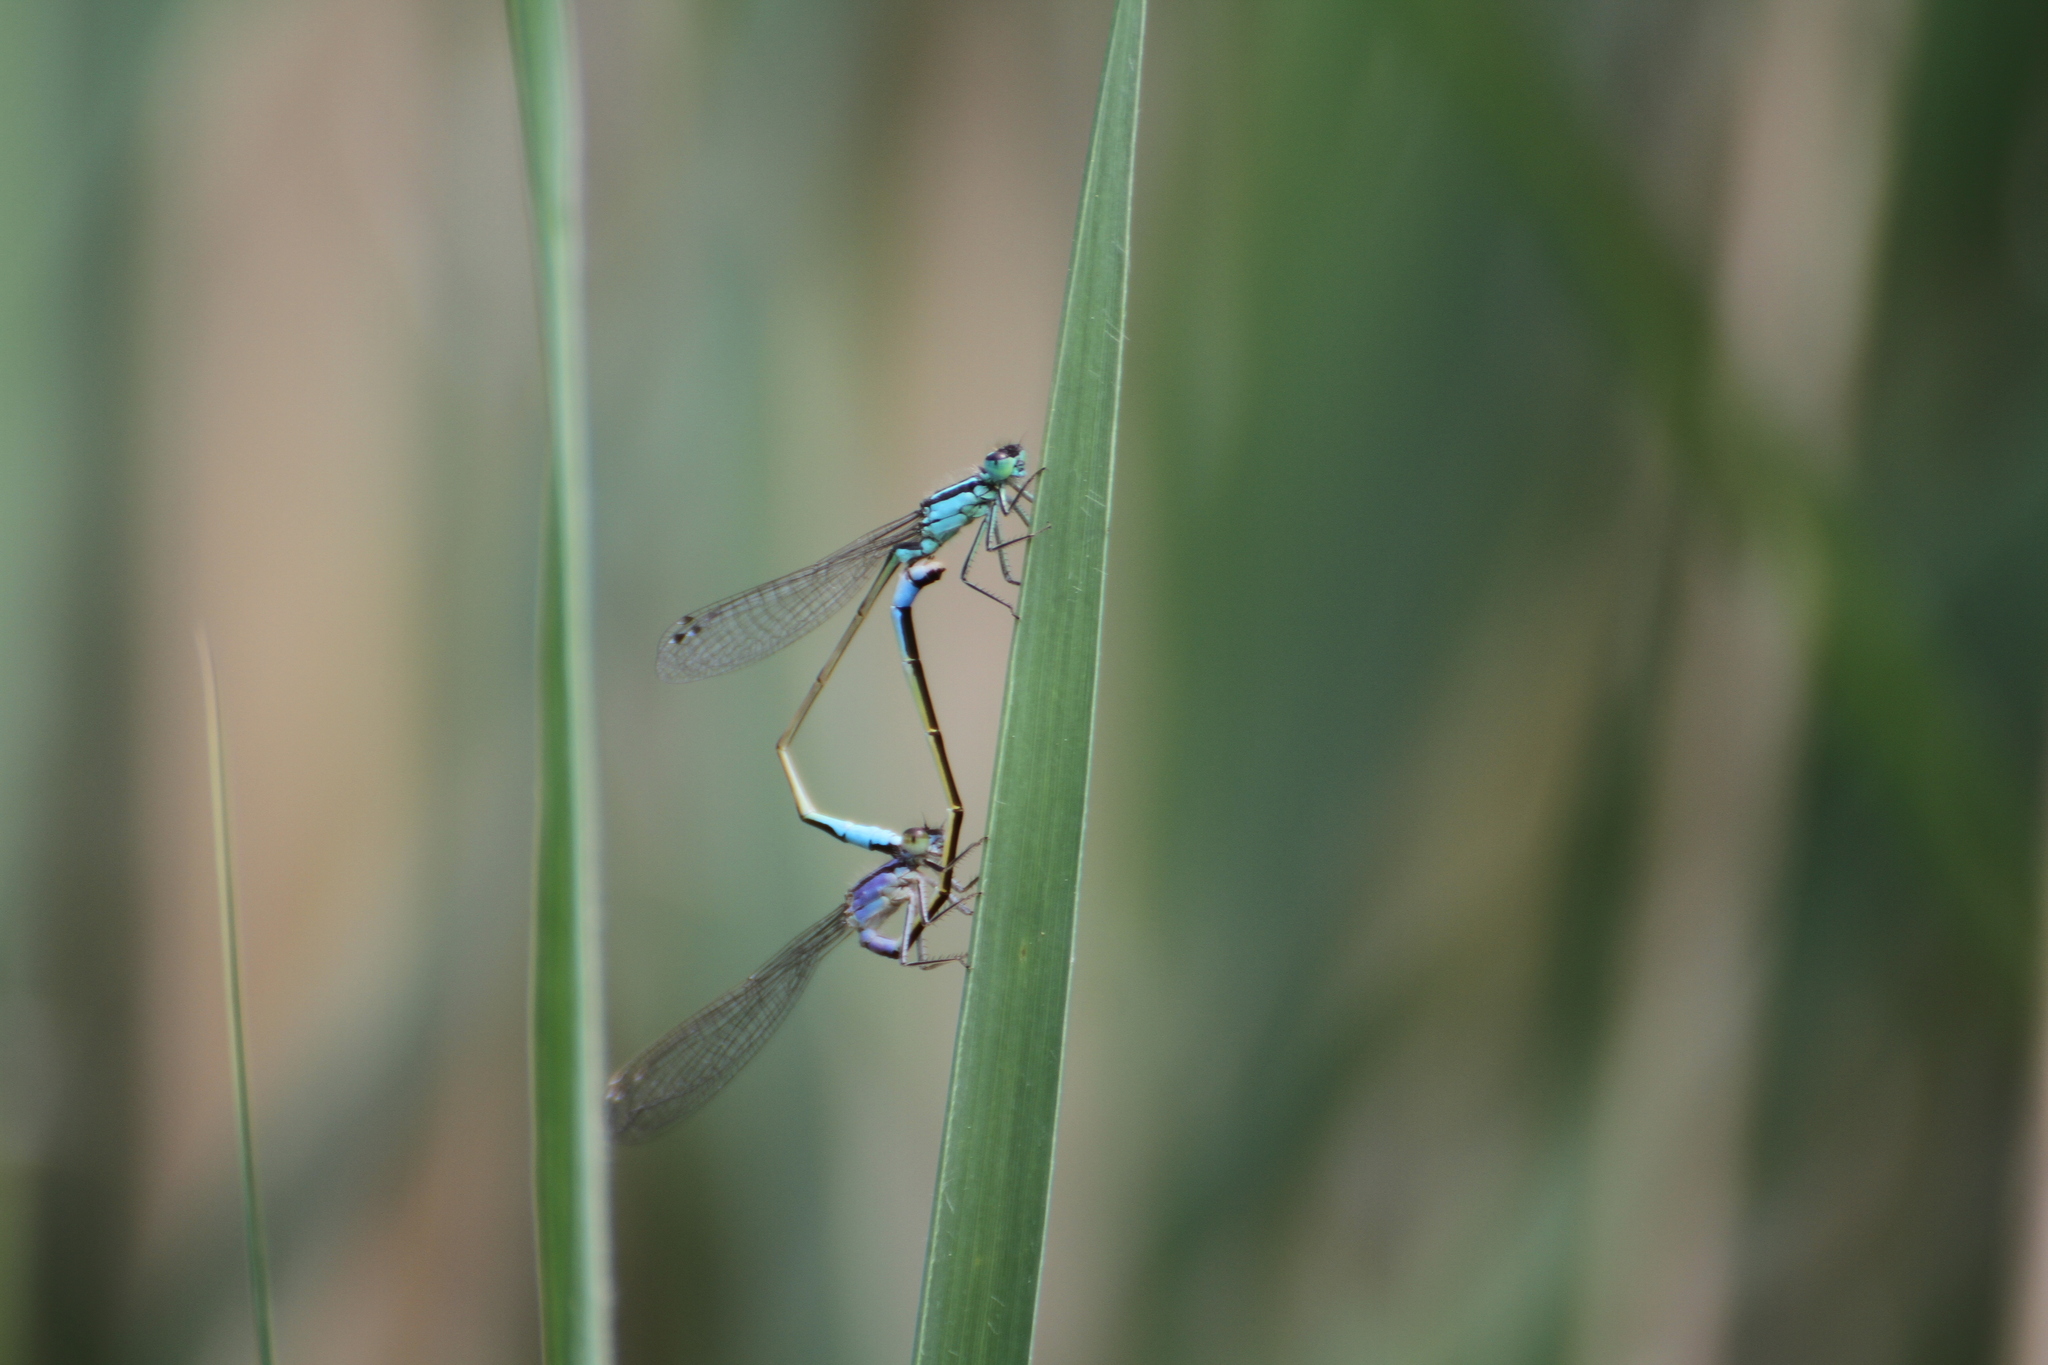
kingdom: Animalia
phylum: Arthropoda
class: Insecta
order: Odonata
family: Coenagrionidae
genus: Ischnura
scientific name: Ischnura elegans
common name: Blue-tailed damselfly
